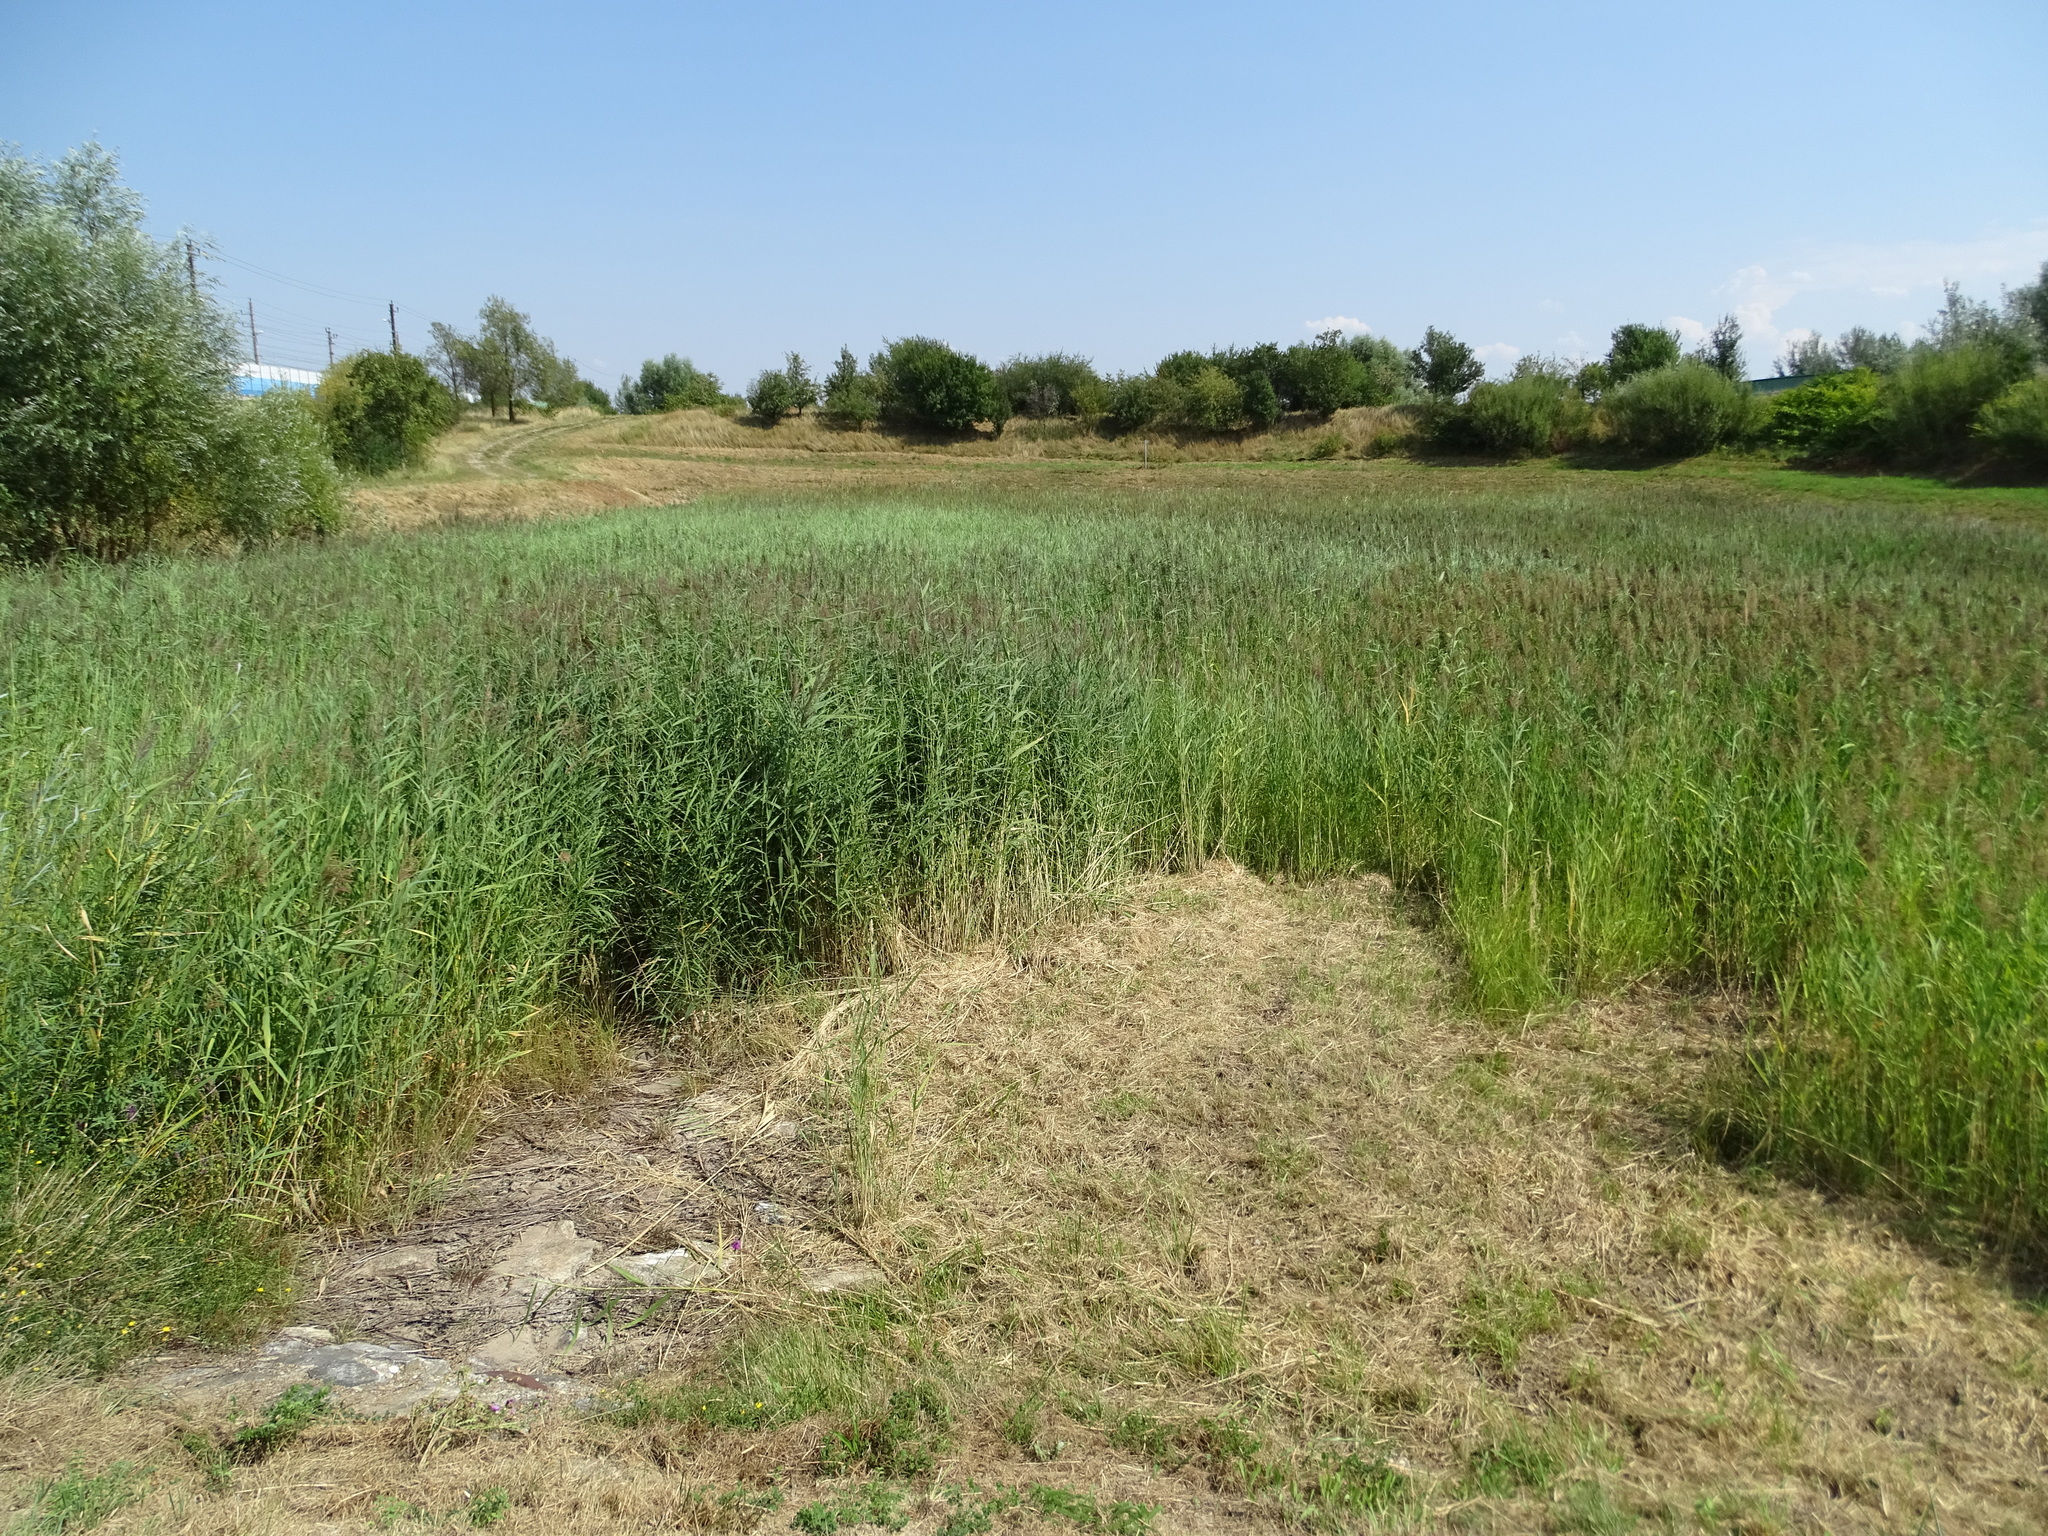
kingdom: Plantae
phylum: Tracheophyta
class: Liliopsida
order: Poales
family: Poaceae
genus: Phragmites
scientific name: Phragmites australis
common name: Common reed
